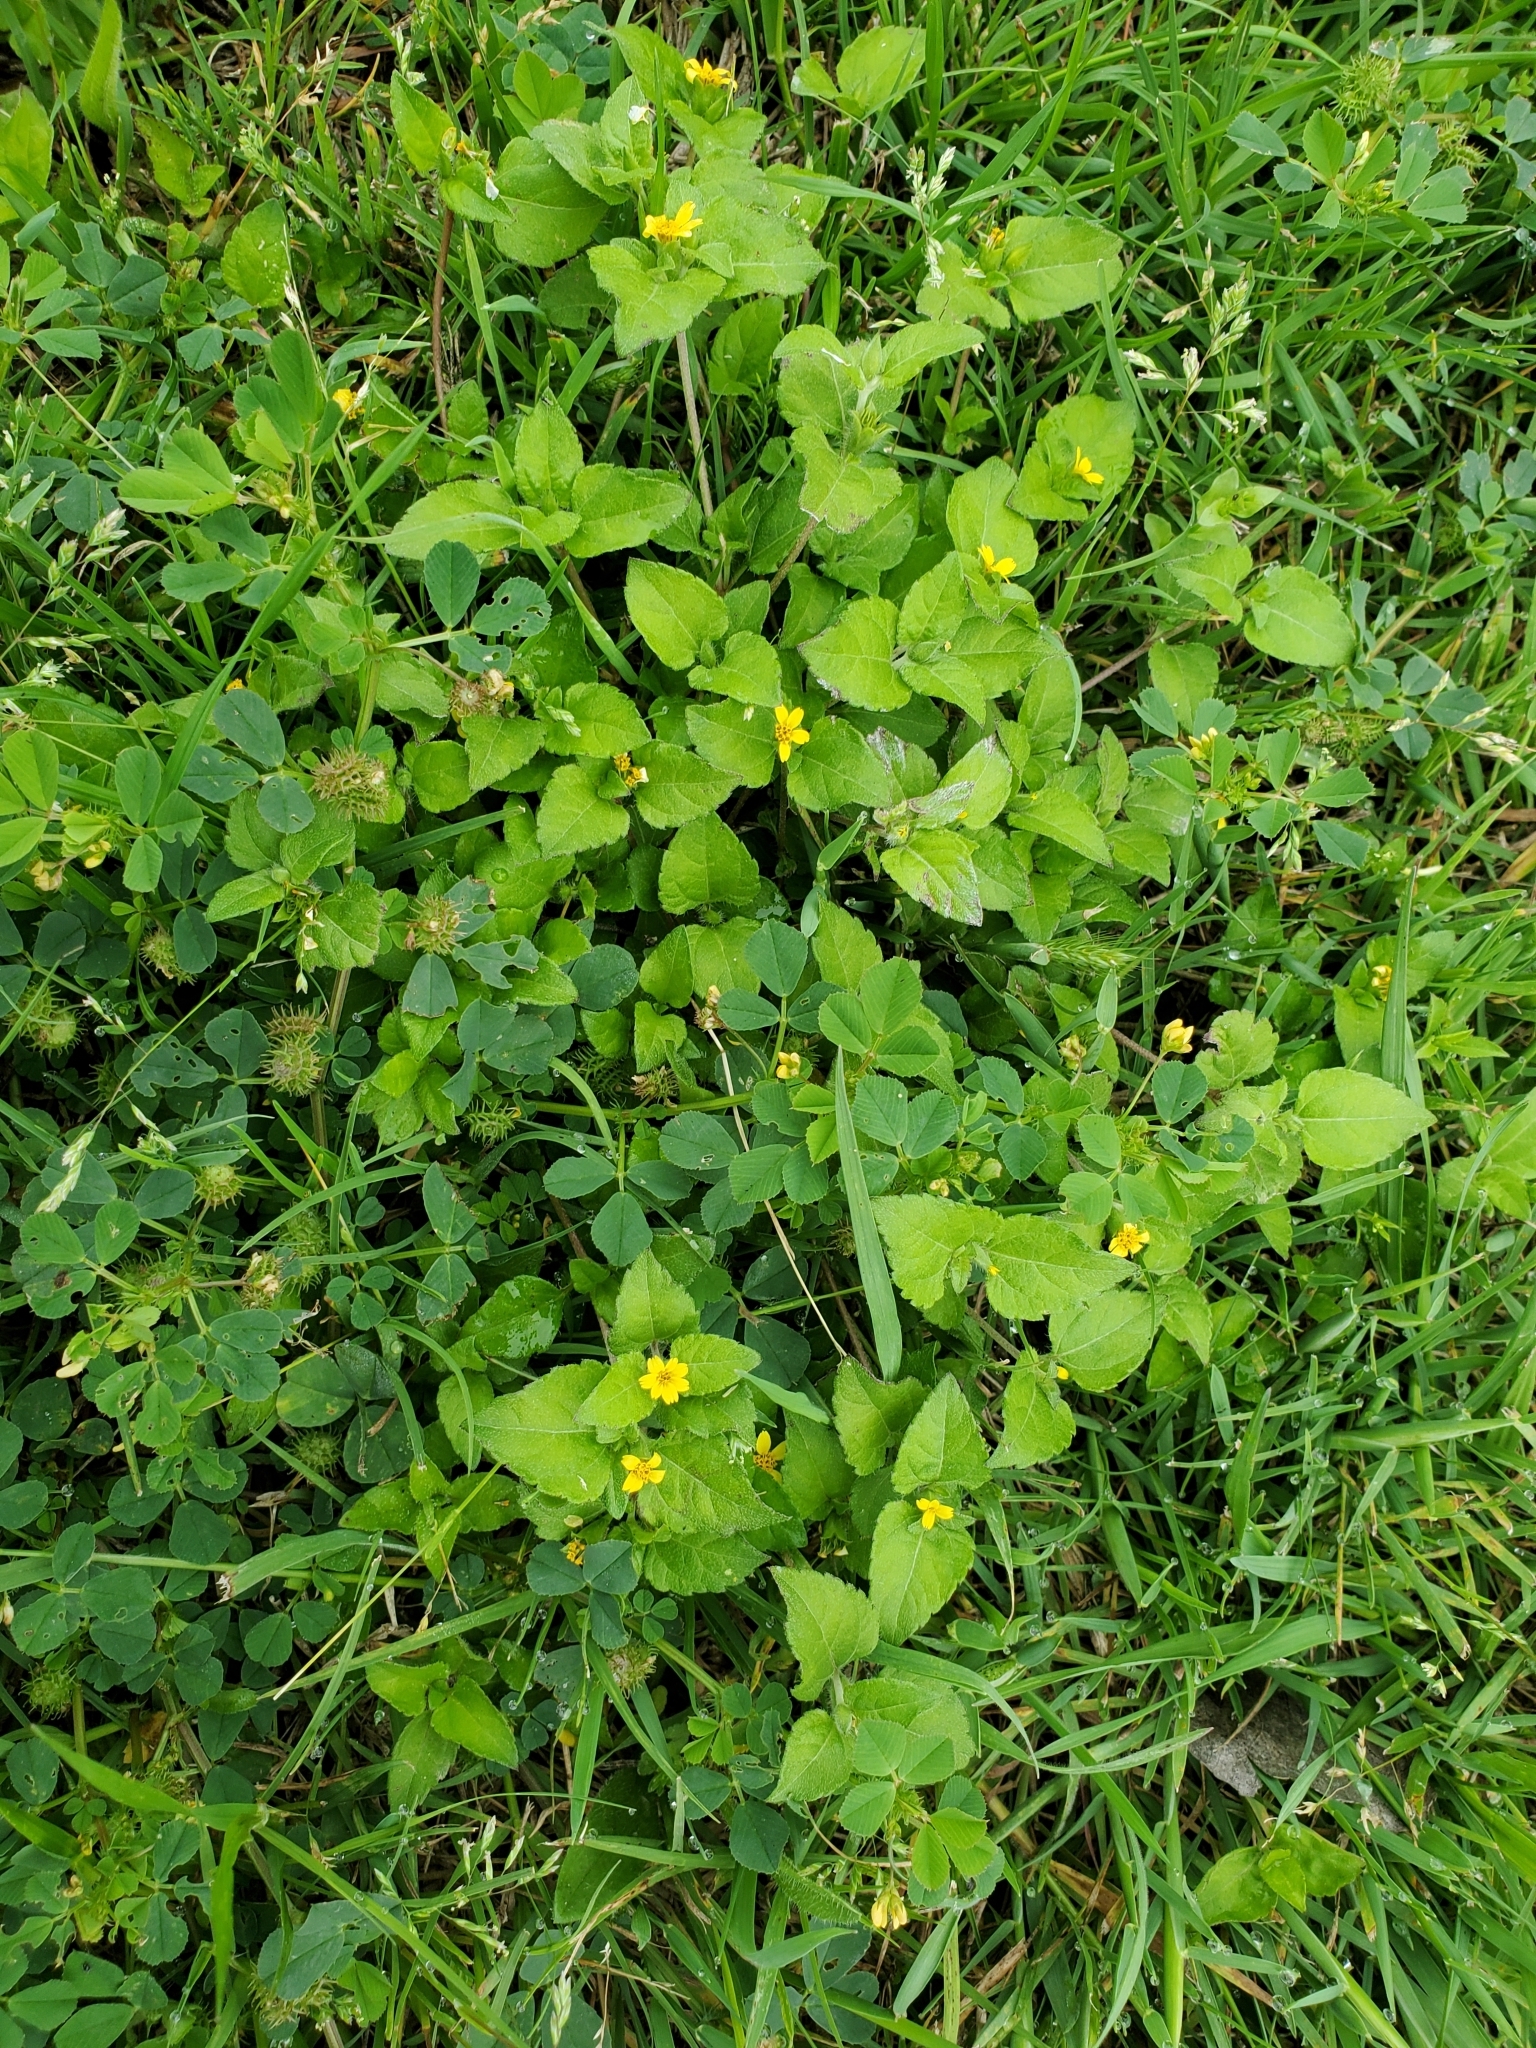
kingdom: Plantae
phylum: Tracheophyta
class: Magnoliopsida
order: Asterales
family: Asteraceae
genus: Calyptocarpus
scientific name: Calyptocarpus vialis
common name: Straggler daisy
